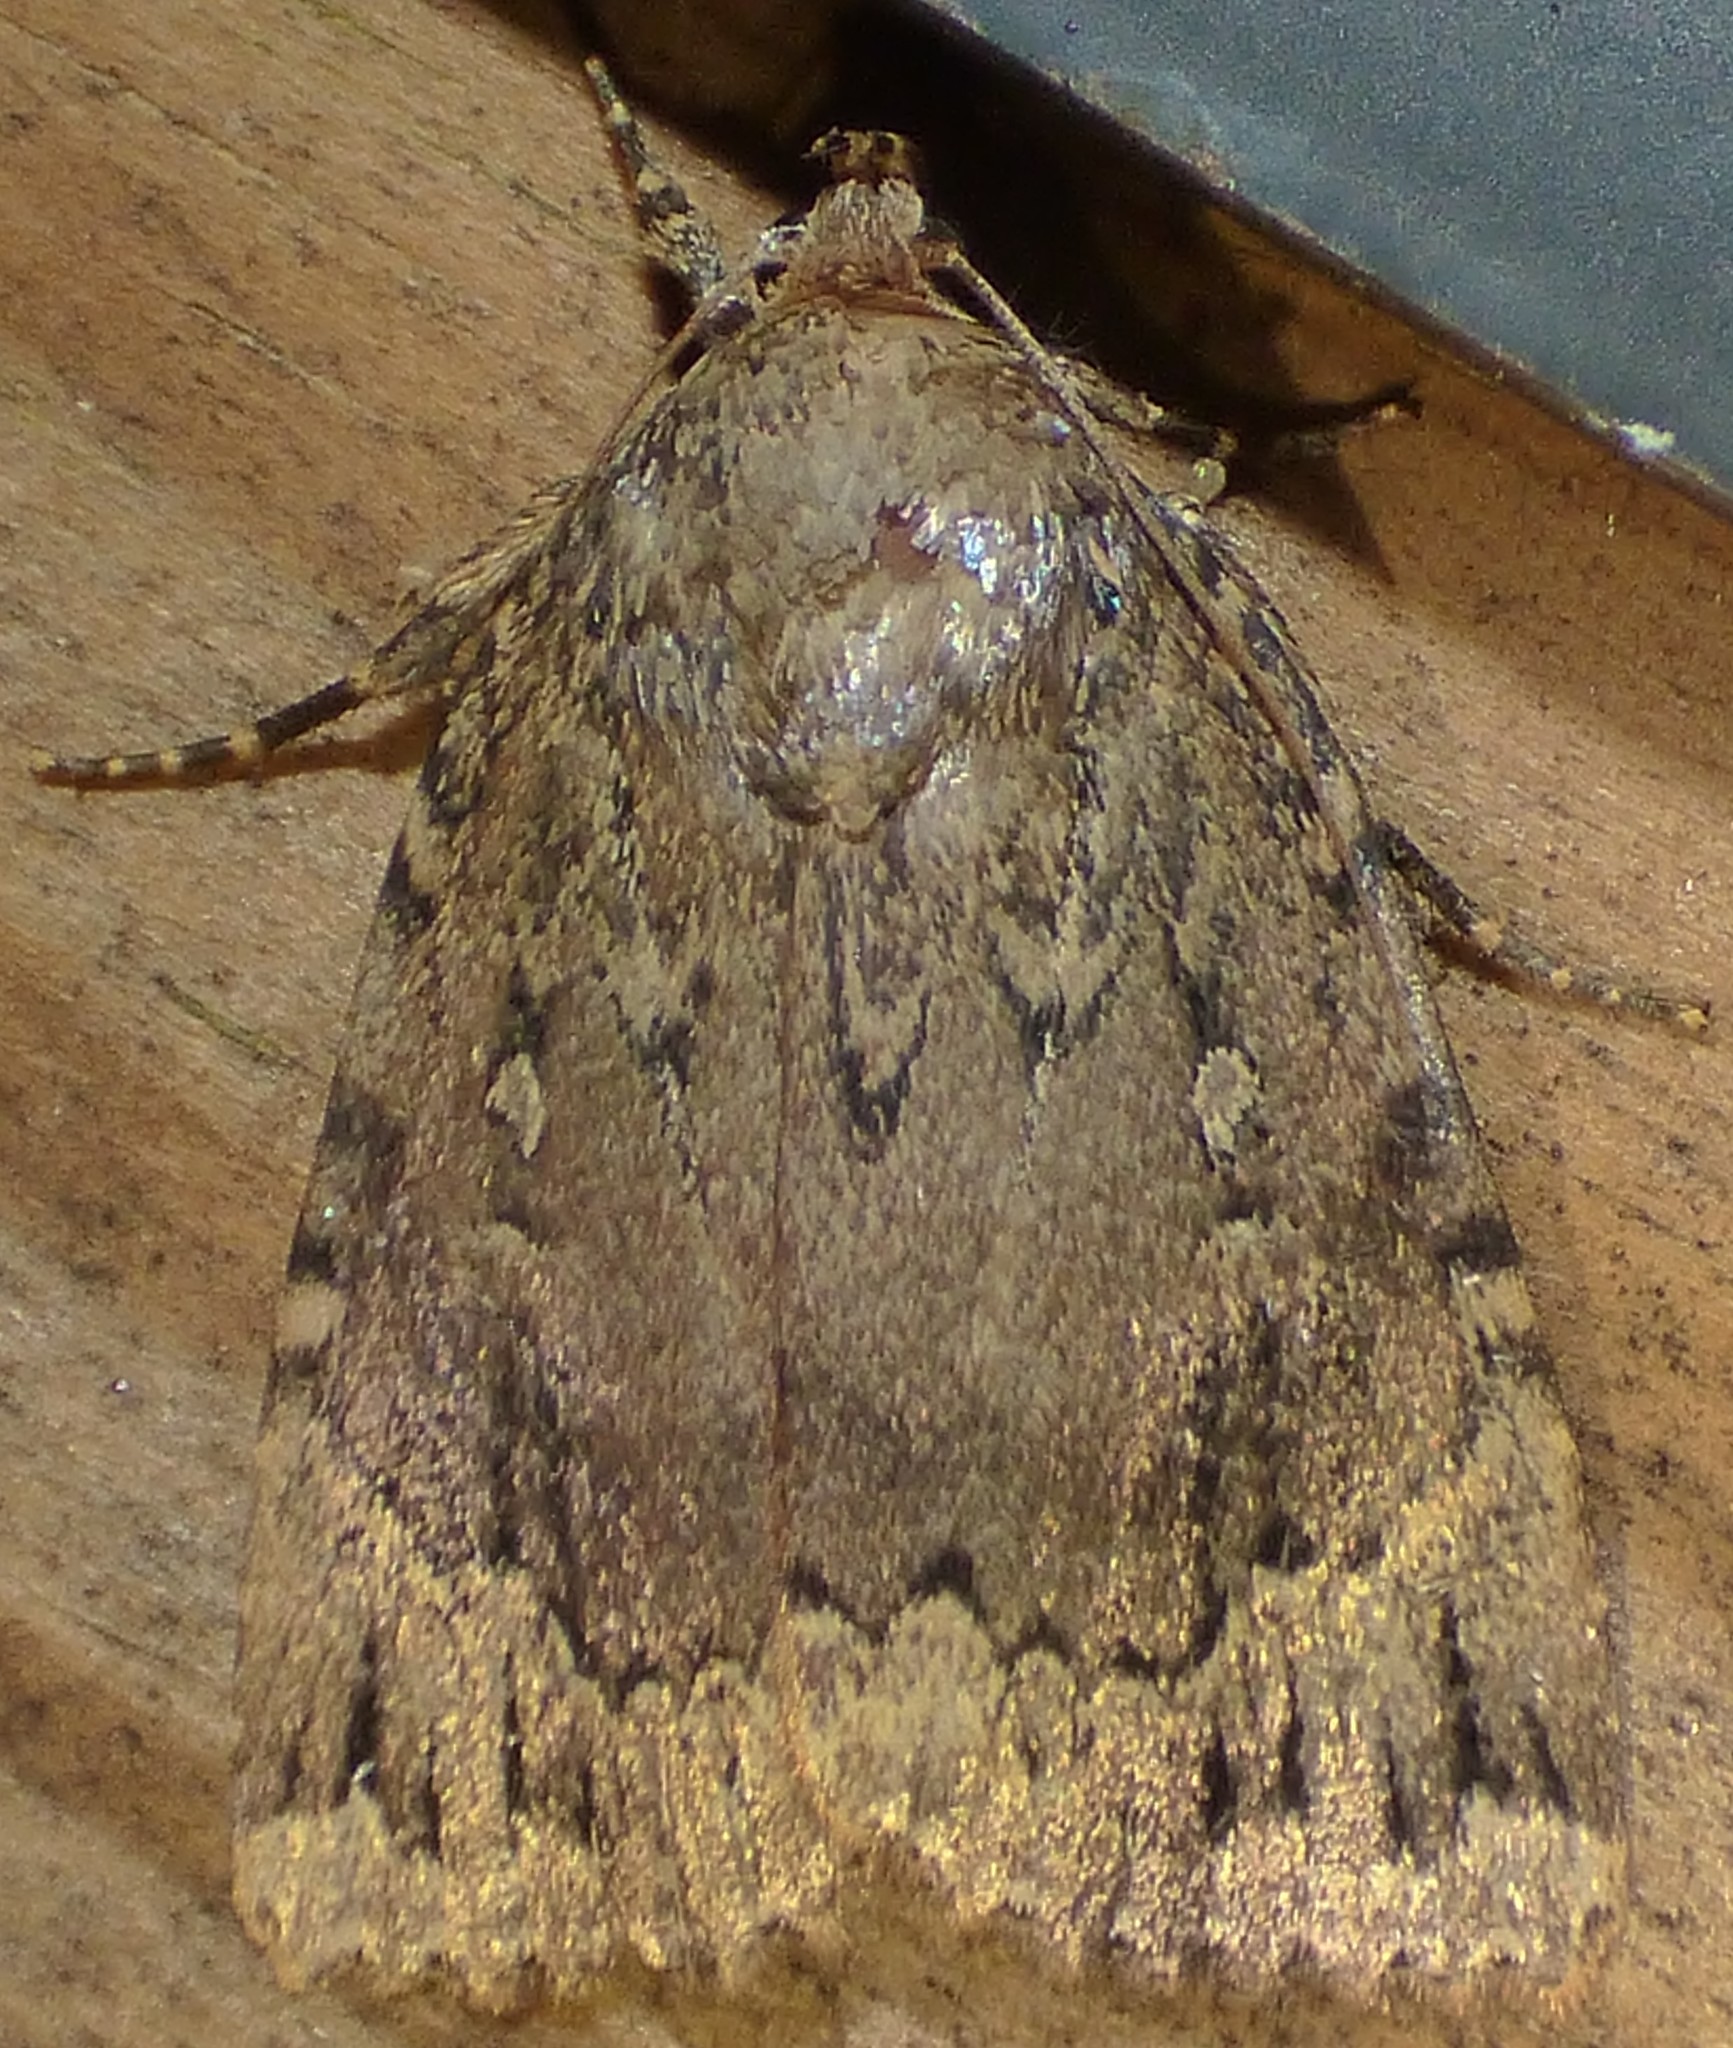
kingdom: Animalia
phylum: Arthropoda
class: Insecta
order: Lepidoptera
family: Noctuidae
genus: Amphipyra
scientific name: Amphipyra pyramidoides
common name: American copper underwing
